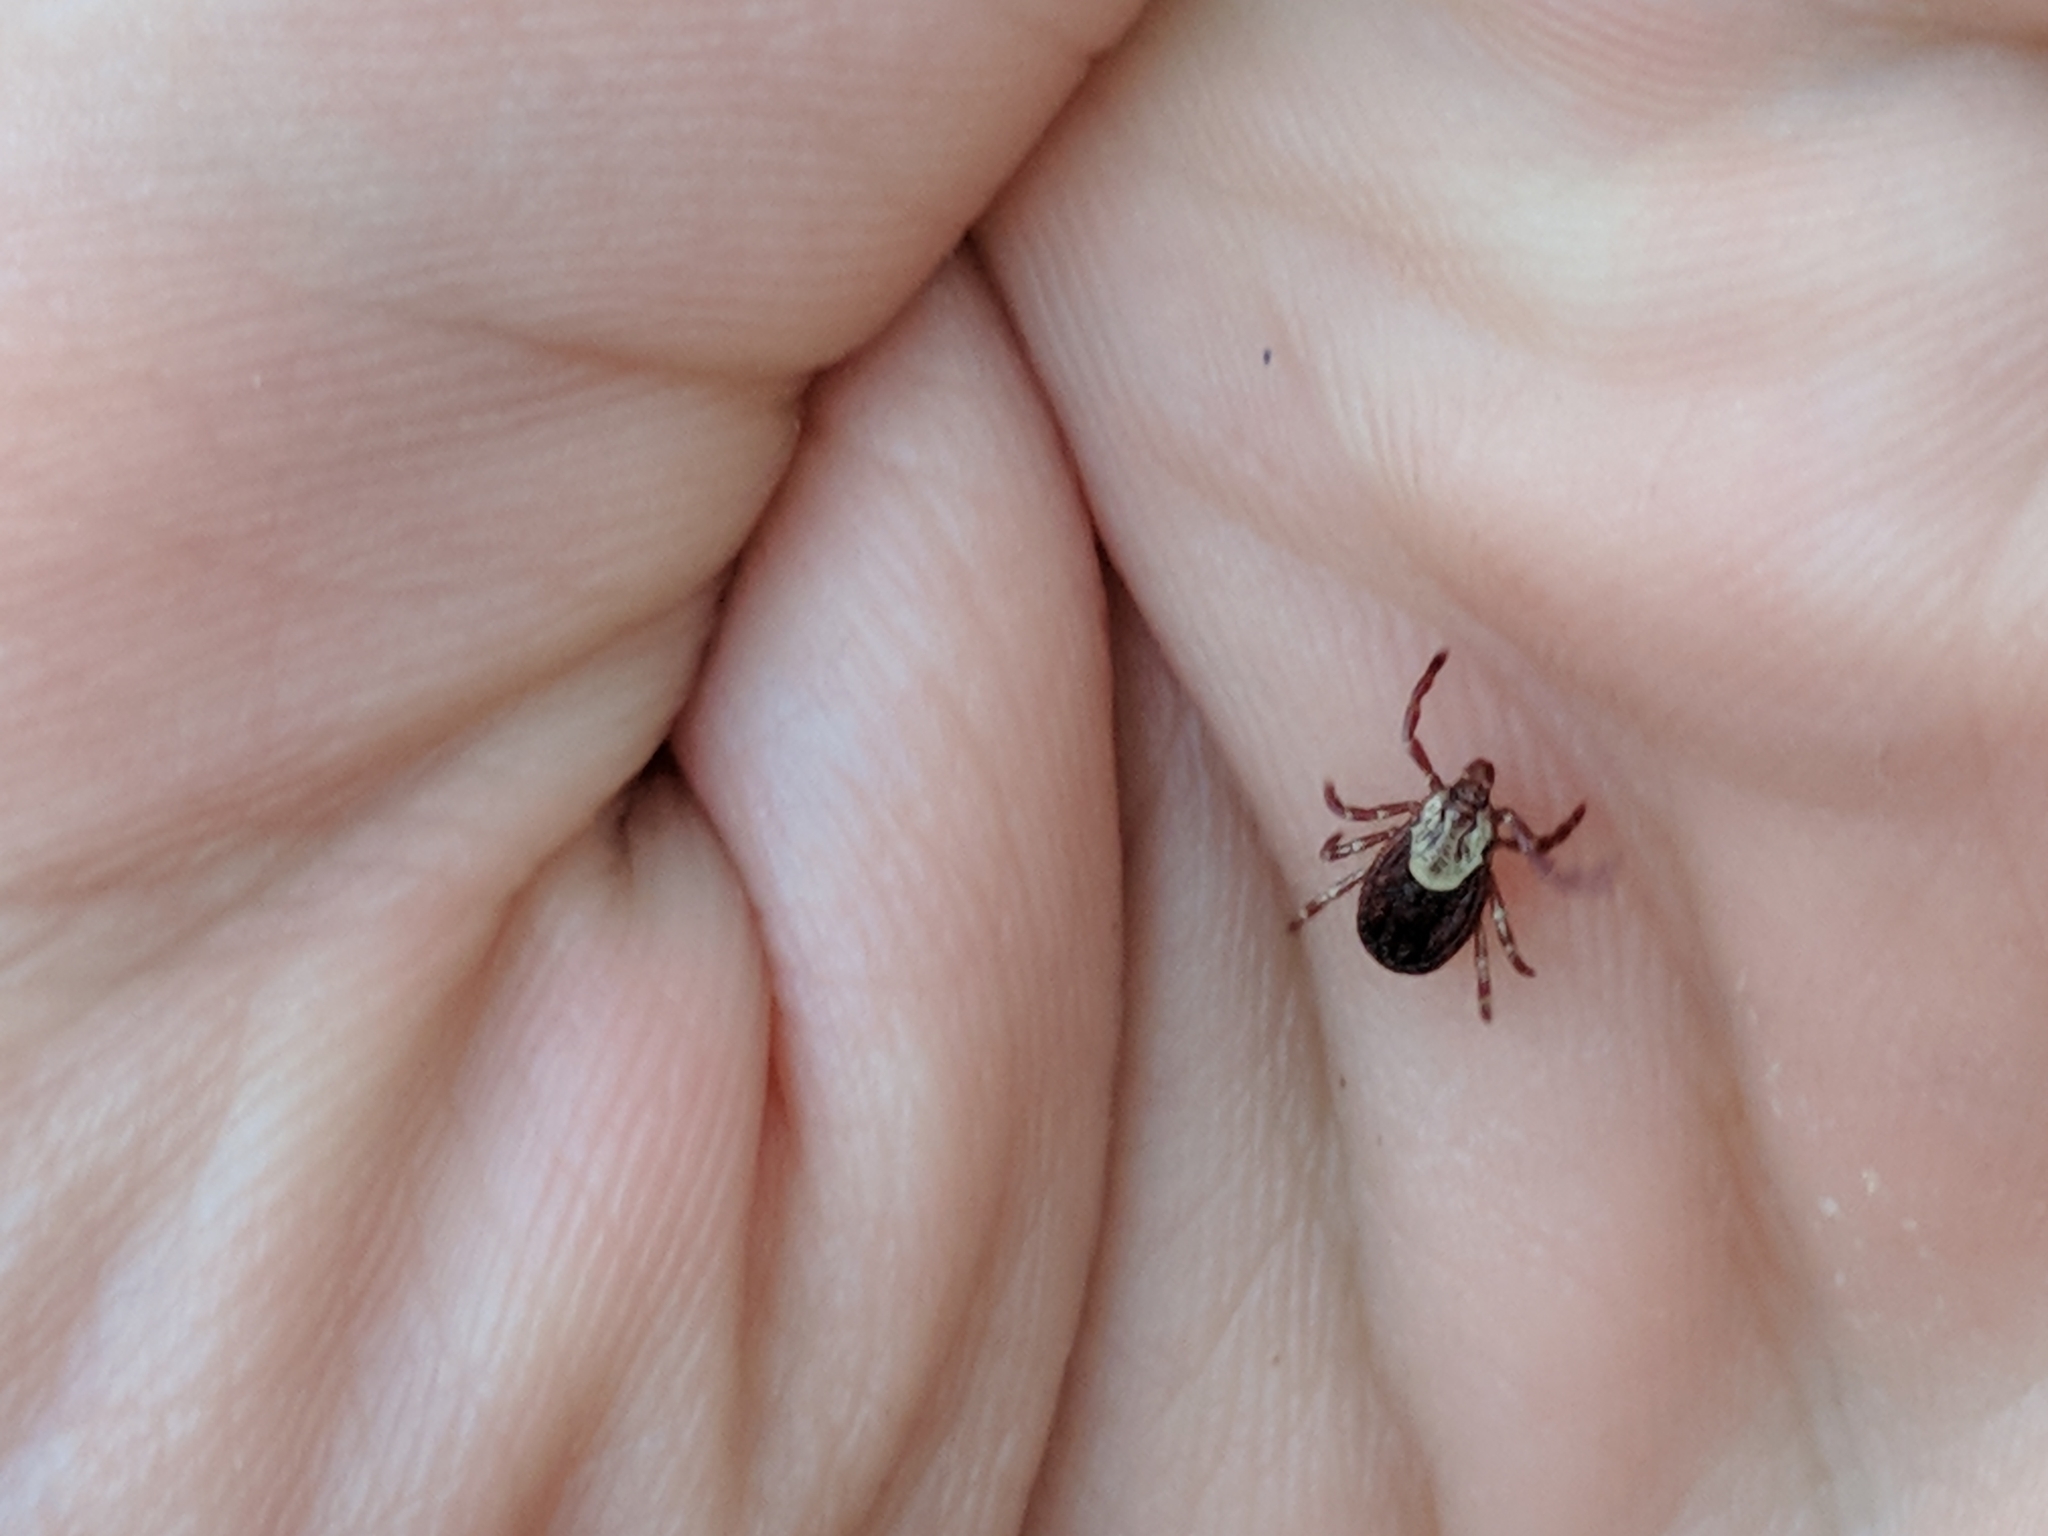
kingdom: Animalia
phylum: Arthropoda
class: Arachnida
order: Ixodida
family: Ixodidae
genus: Dermacentor
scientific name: Dermacentor variabilis
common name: American dog tick
